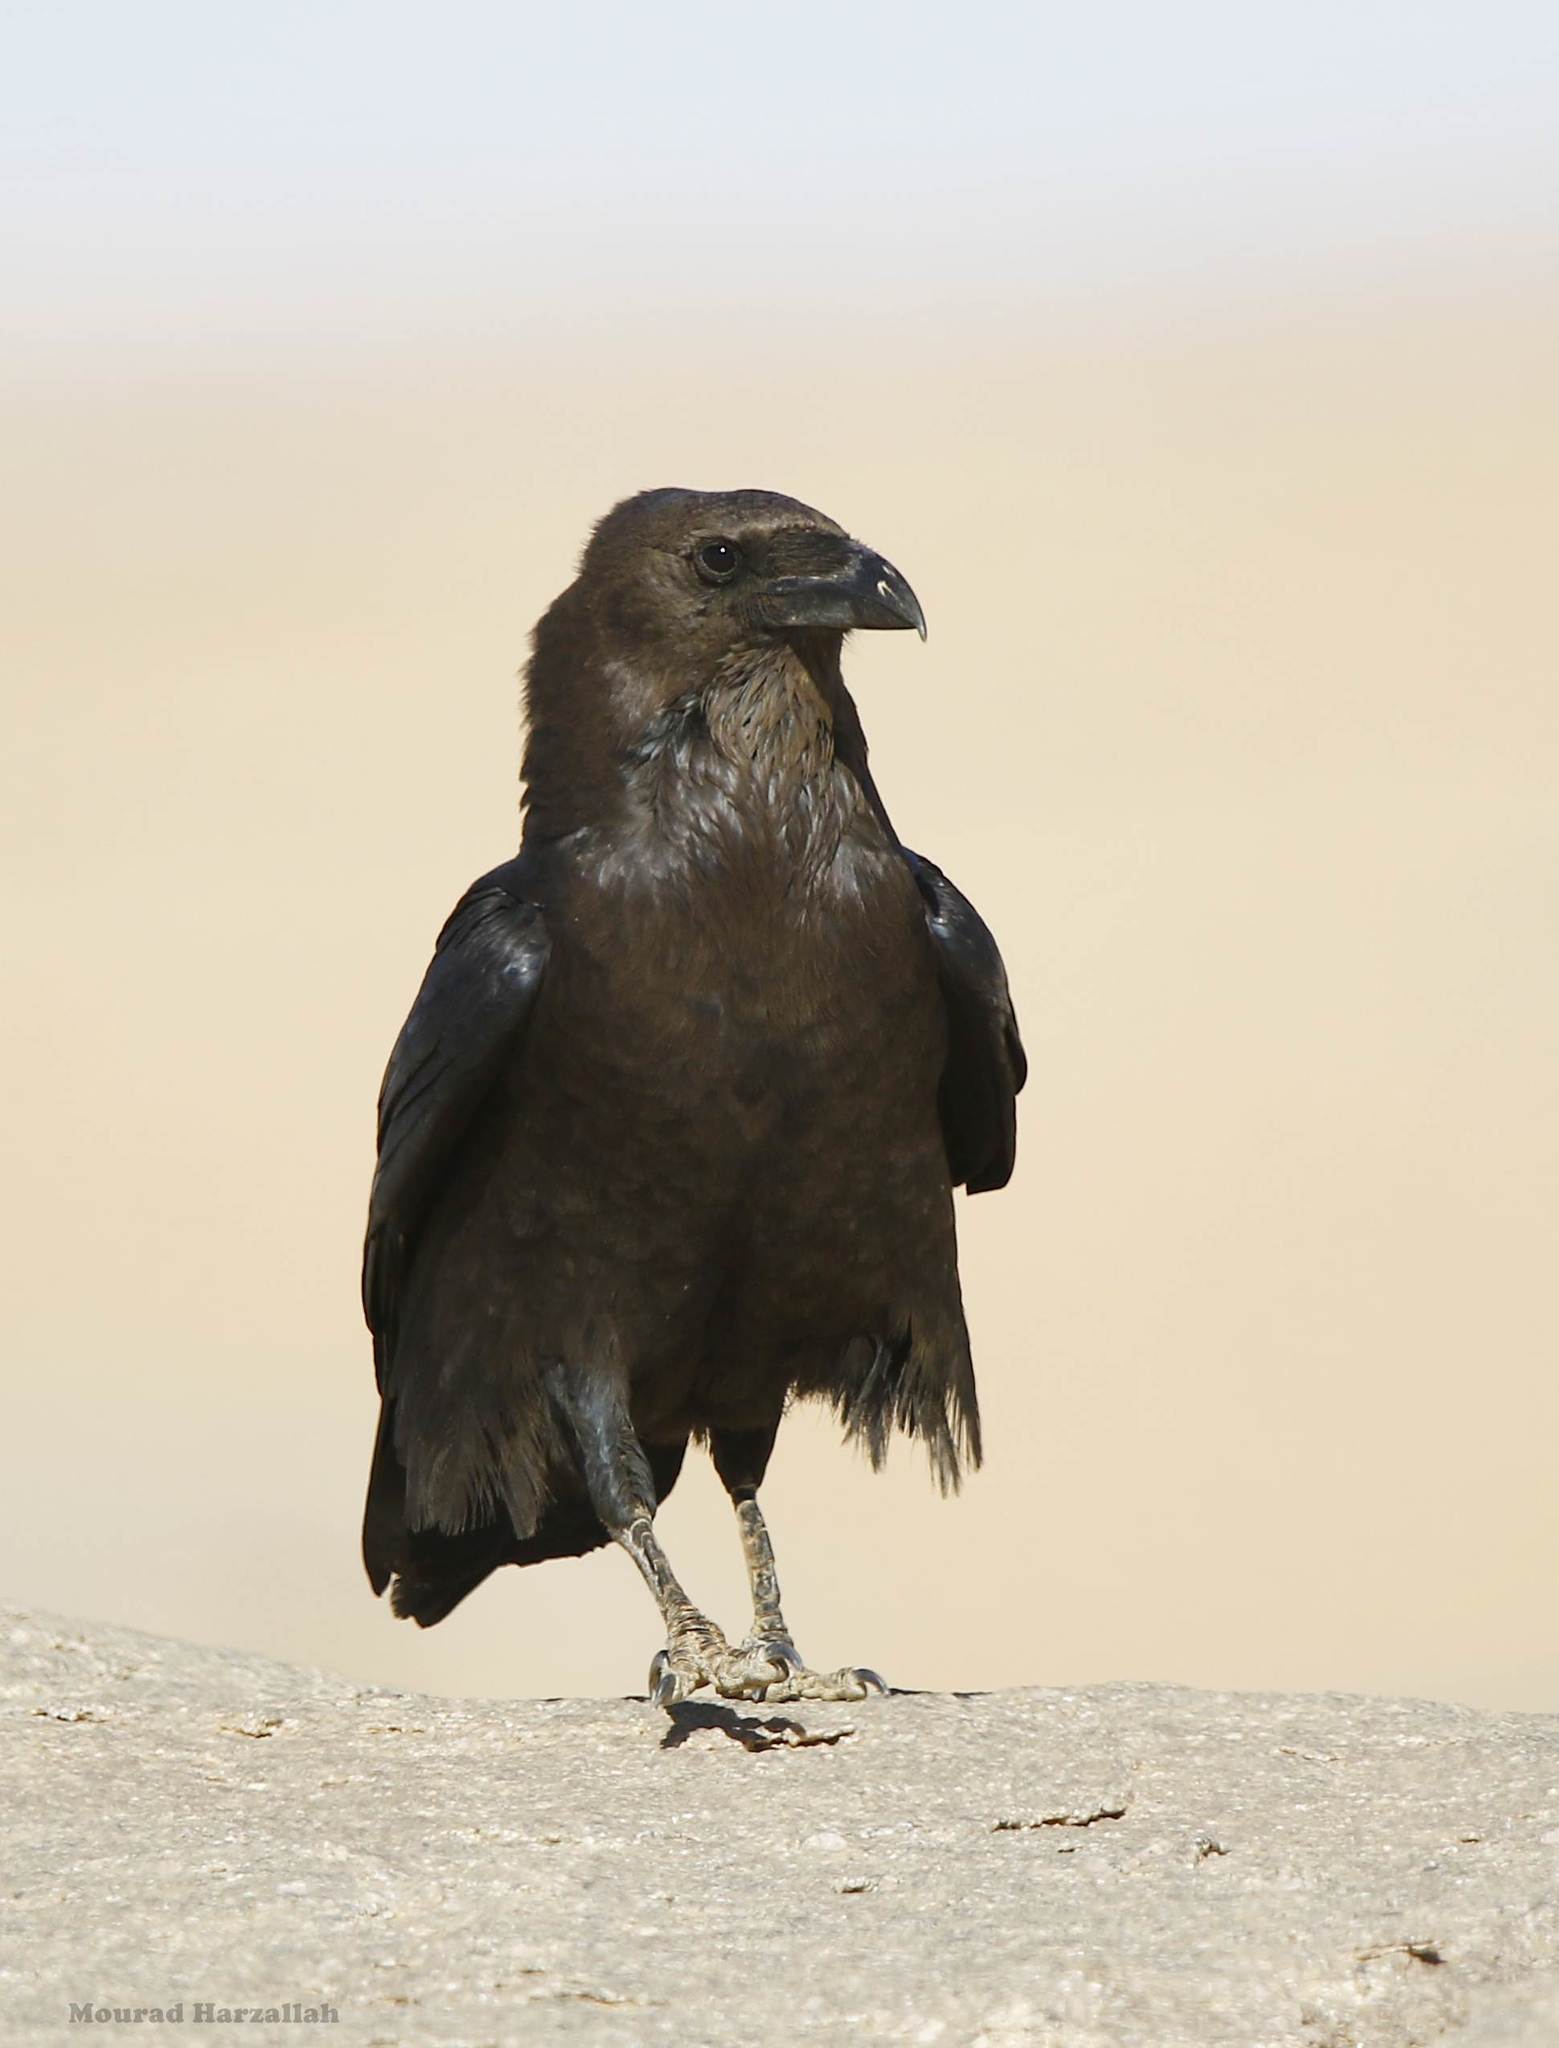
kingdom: Animalia
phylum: Chordata
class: Aves
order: Passeriformes
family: Corvidae
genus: Corvus
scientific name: Corvus ruficollis
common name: Brown-necked raven
